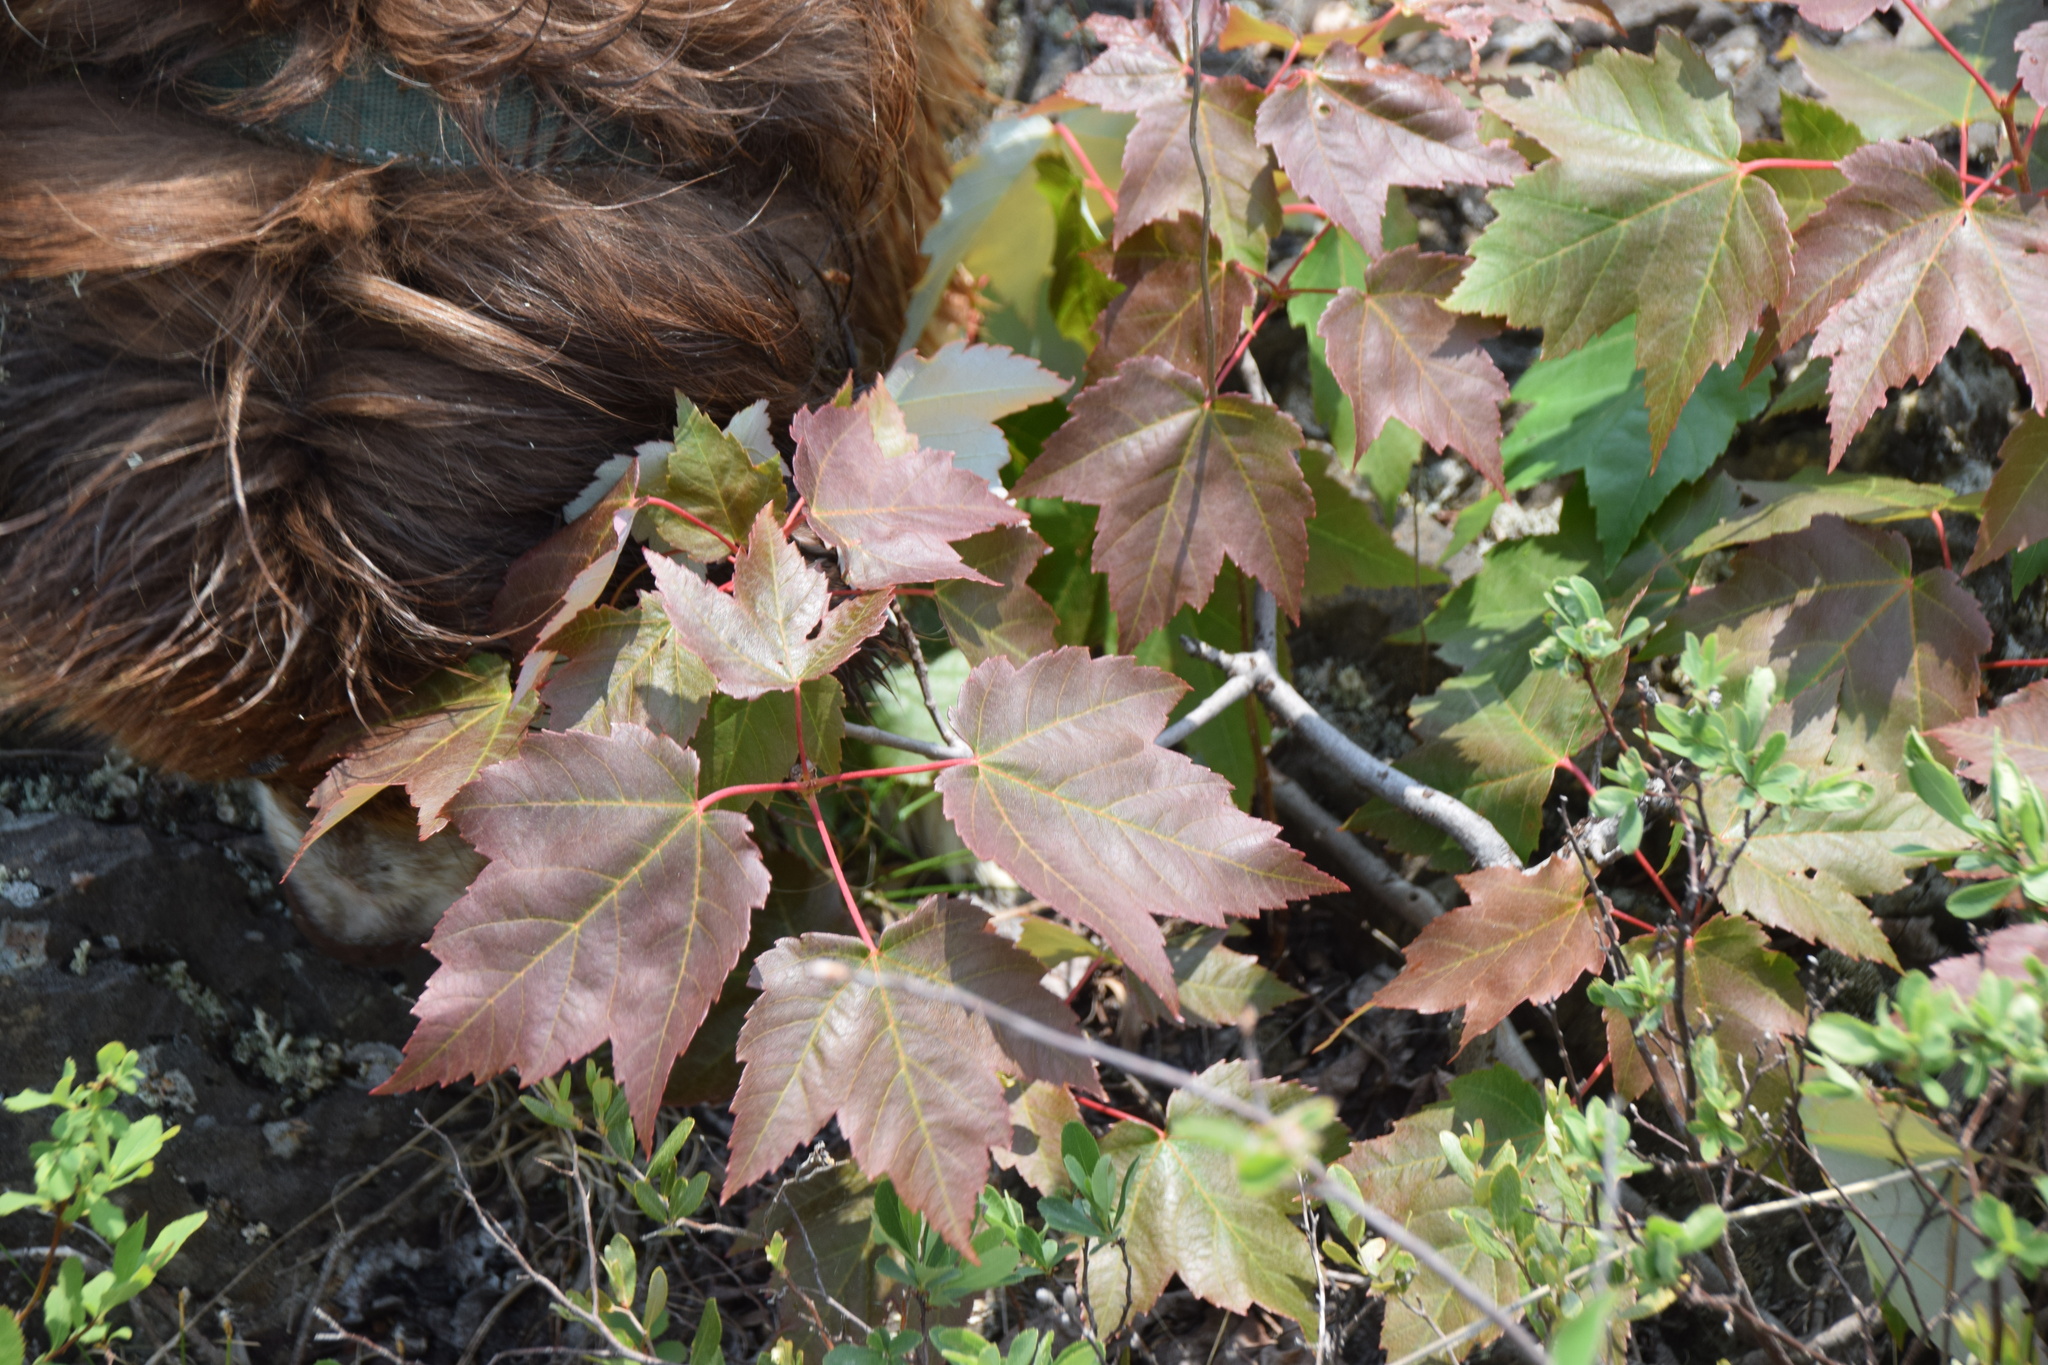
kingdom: Plantae
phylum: Tracheophyta
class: Magnoliopsida
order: Sapindales
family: Sapindaceae
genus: Acer
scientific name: Acer rubrum
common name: Red maple
